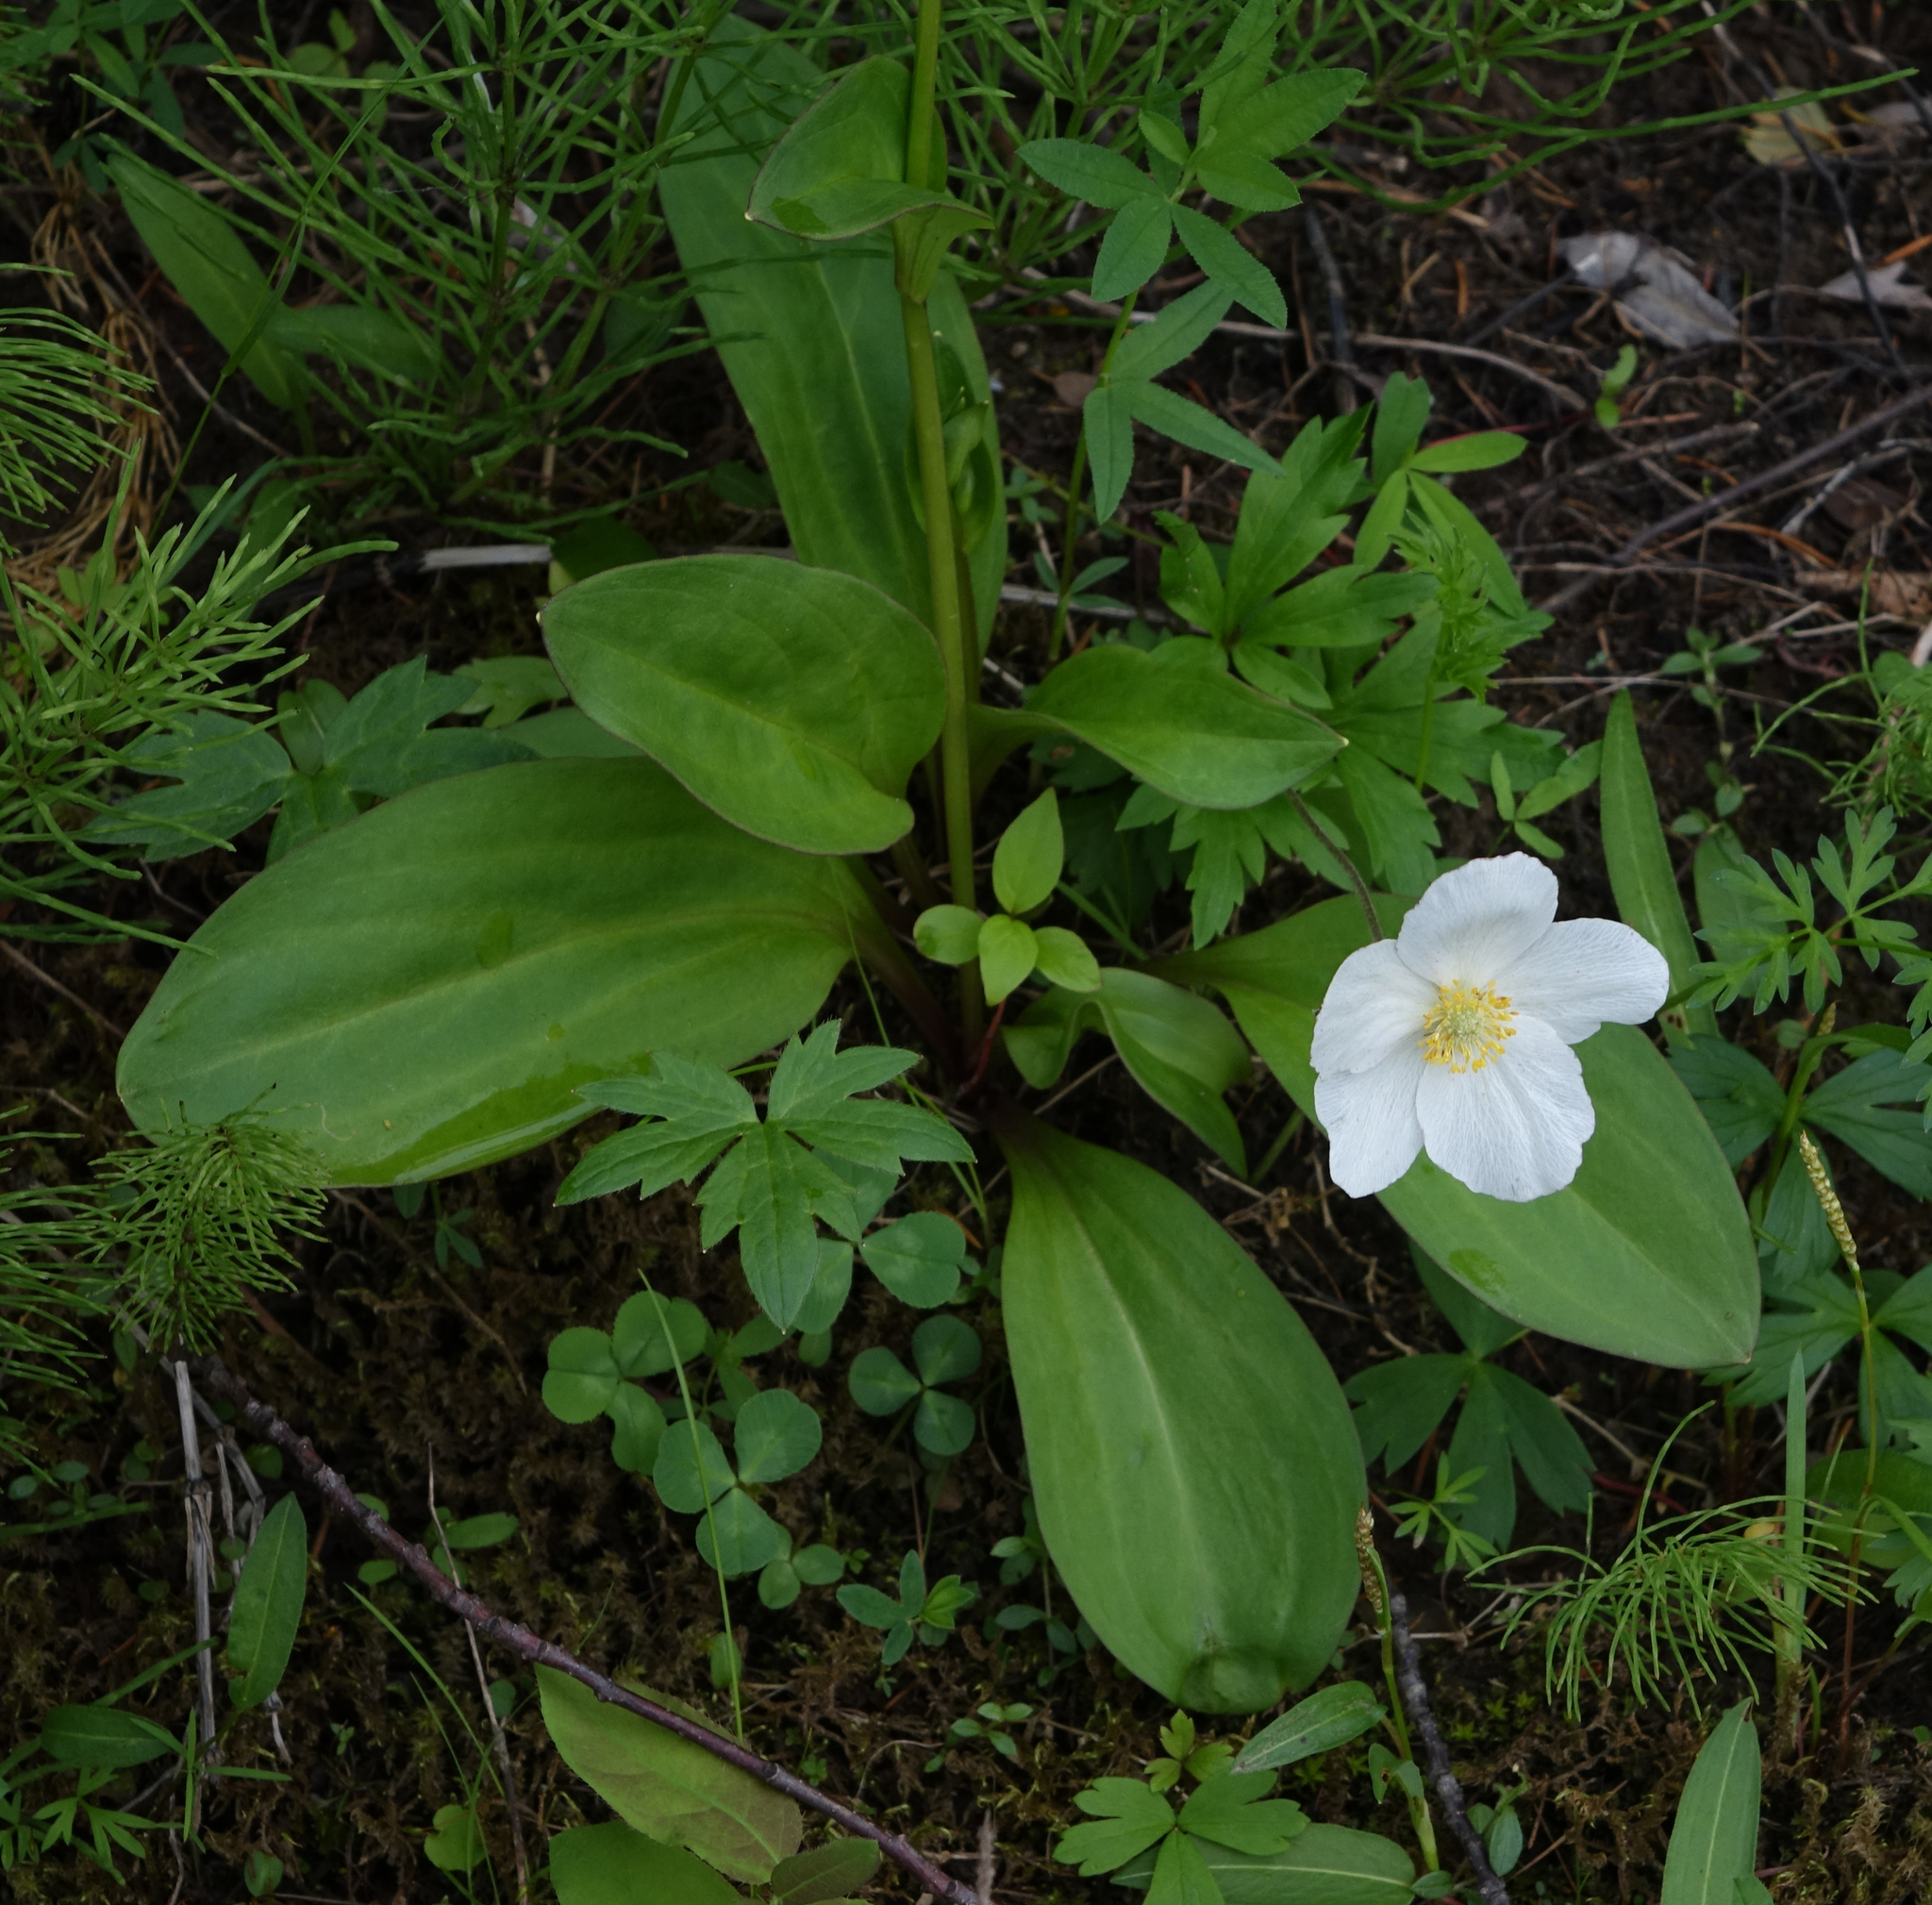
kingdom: Plantae
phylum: Tracheophyta
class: Magnoliopsida
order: Gentianales
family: Gentianaceae
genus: Swertia
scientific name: Swertia obtusa
